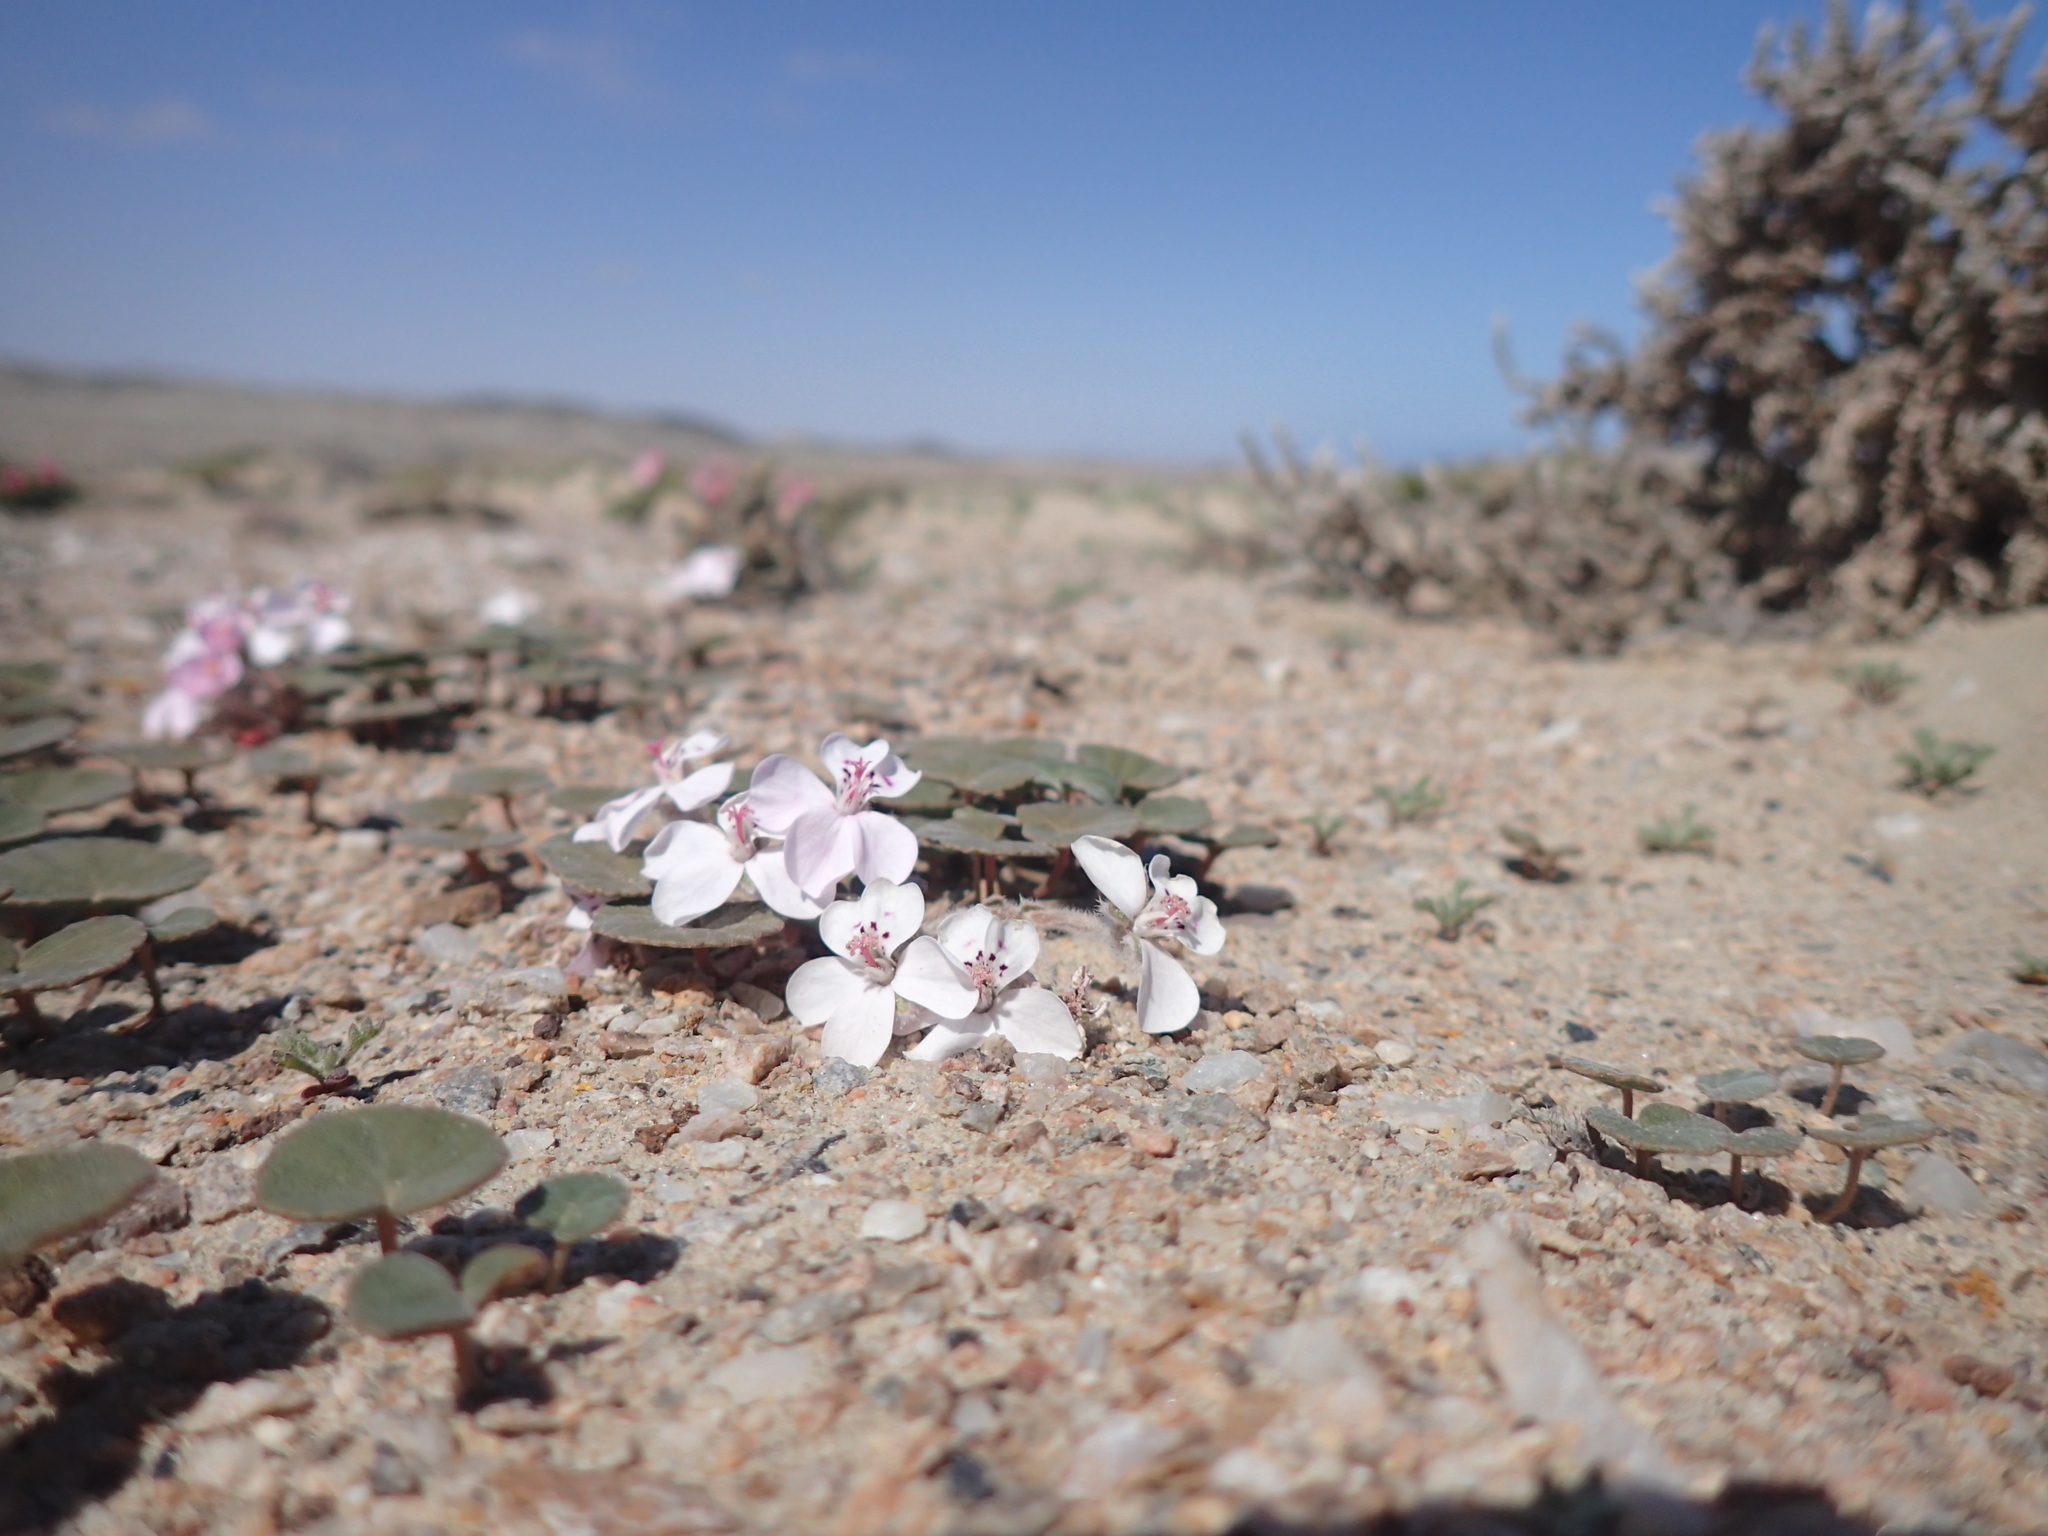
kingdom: Plantae
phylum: Tracheophyta
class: Magnoliopsida
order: Geraniales
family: Geraniaceae
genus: Pelargonium
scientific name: Pelargonium sibthorpiifolium
